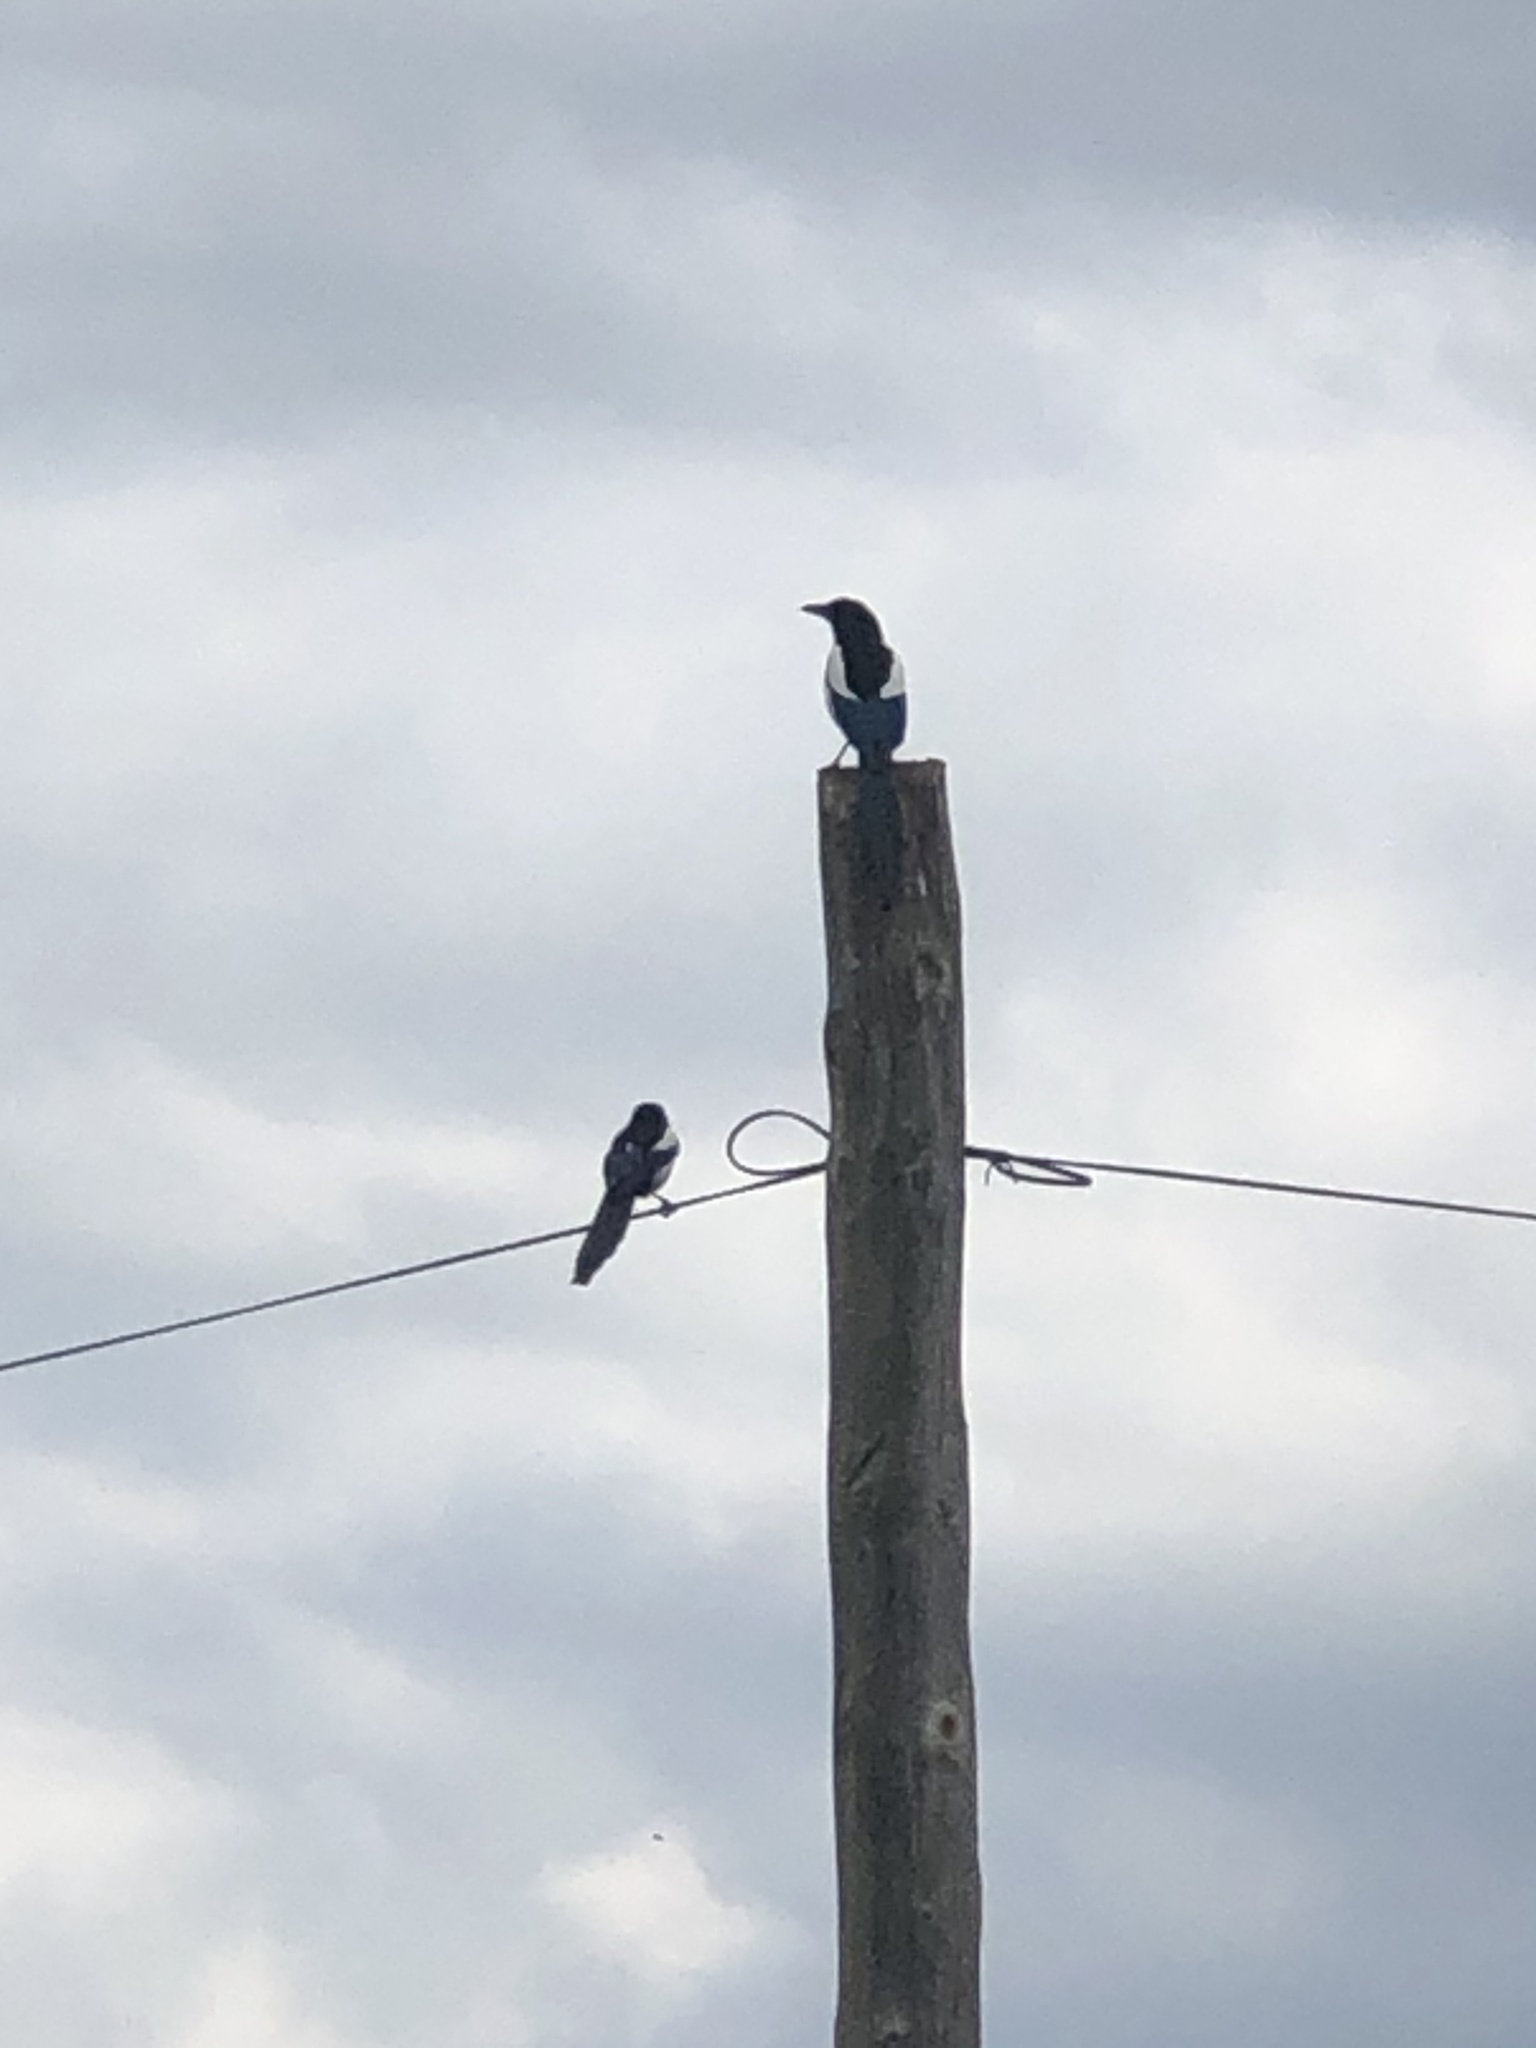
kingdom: Animalia
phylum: Chordata
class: Aves
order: Passeriformes
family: Corvidae
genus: Pica
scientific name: Pica pica
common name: Eurasian magpie
